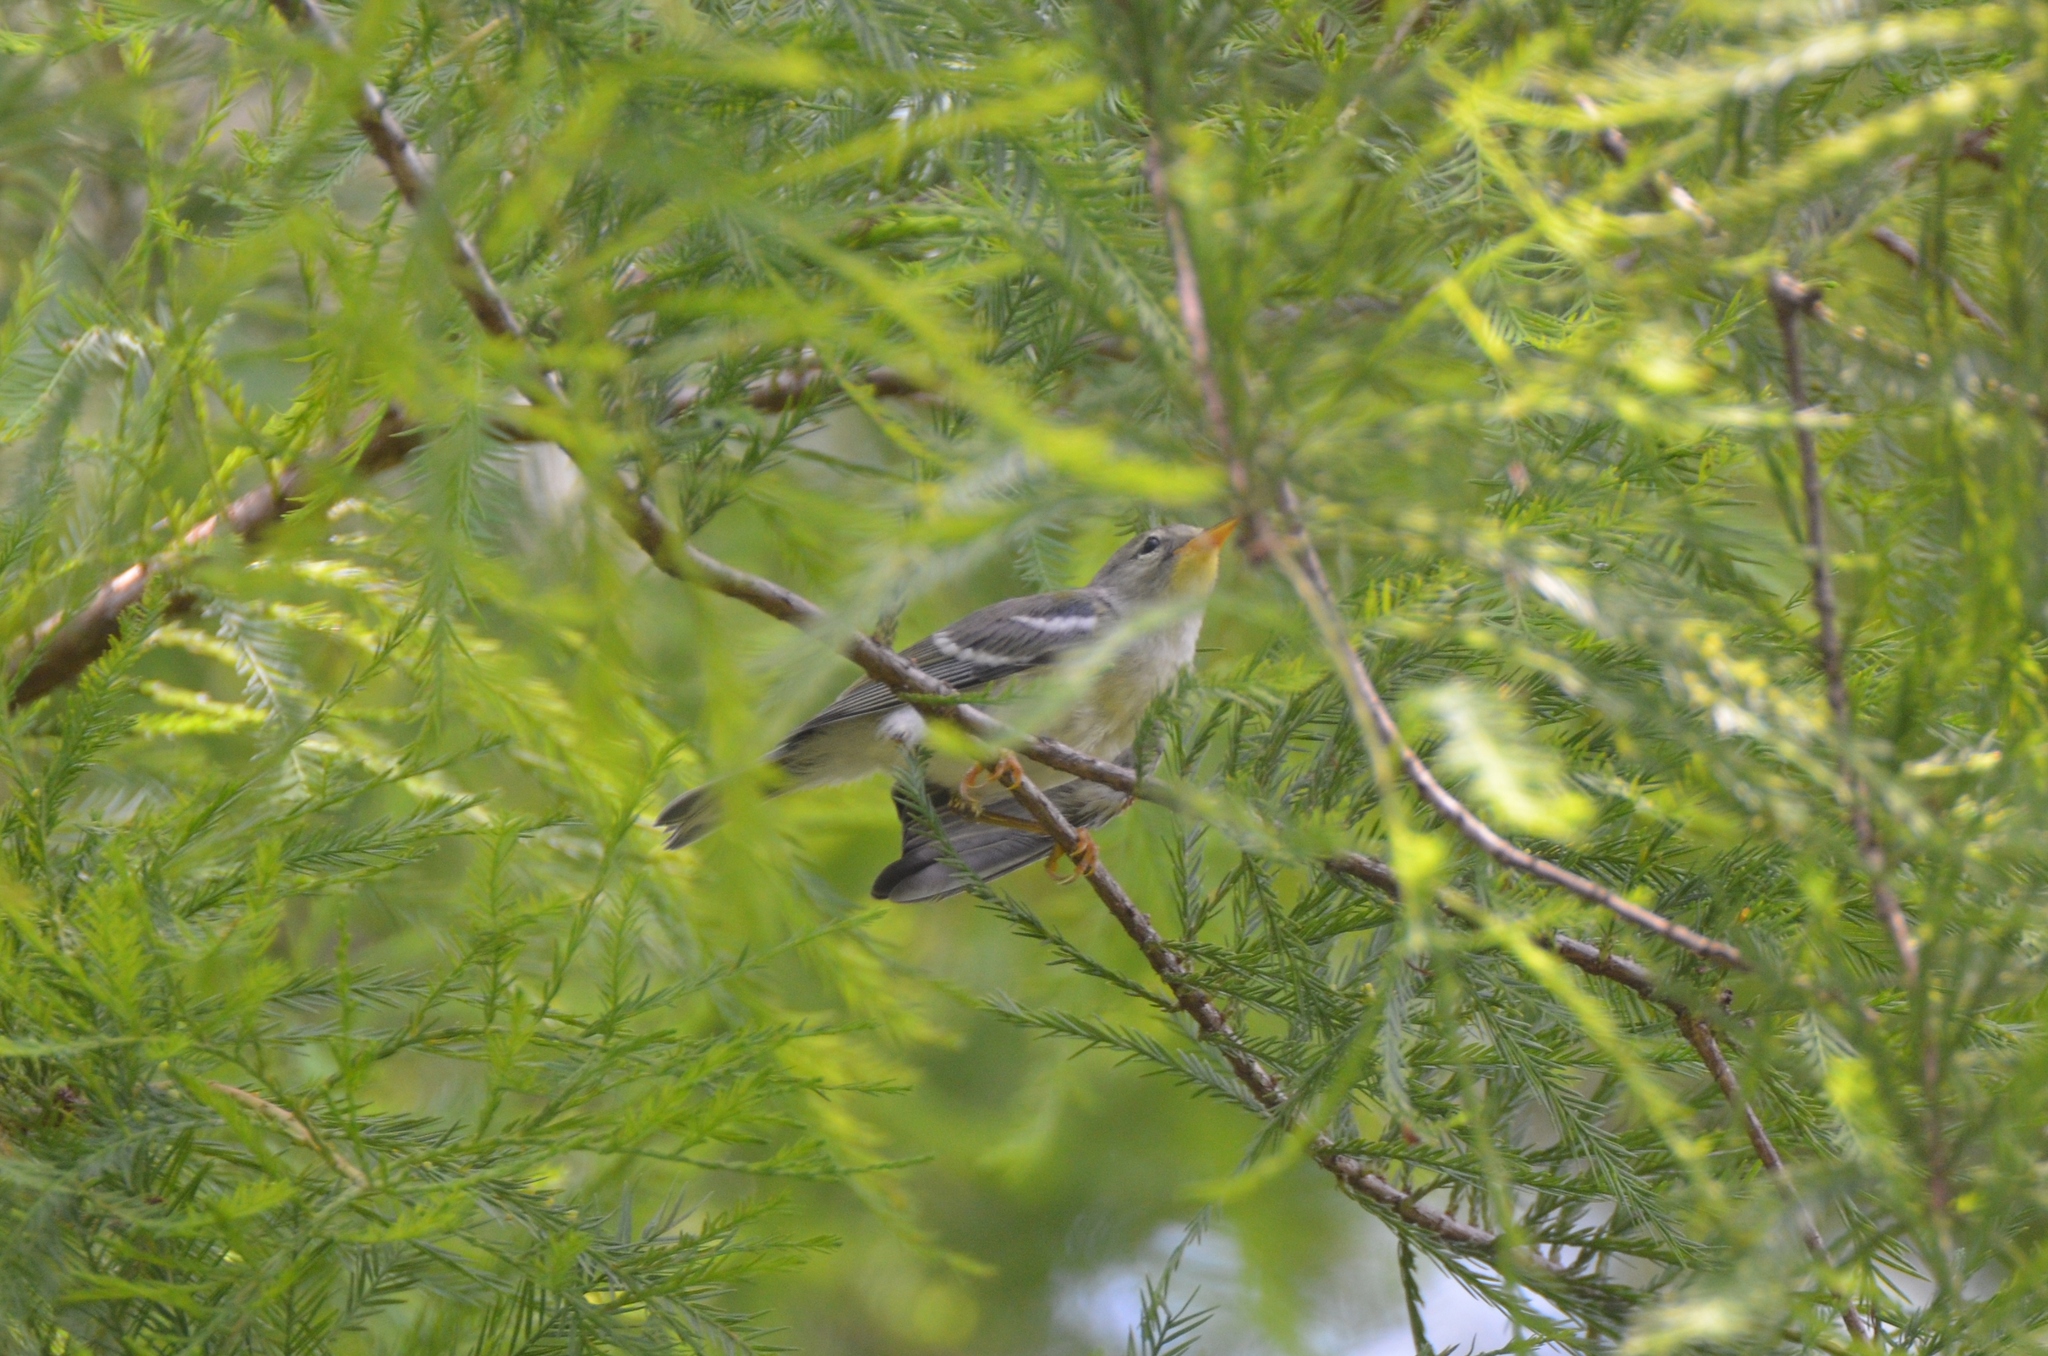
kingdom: Animalia
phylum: Chordata
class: Aves
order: Passeriformes
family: Parulidae
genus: Setophaga
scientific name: Setophaga americana
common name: Northern parula
